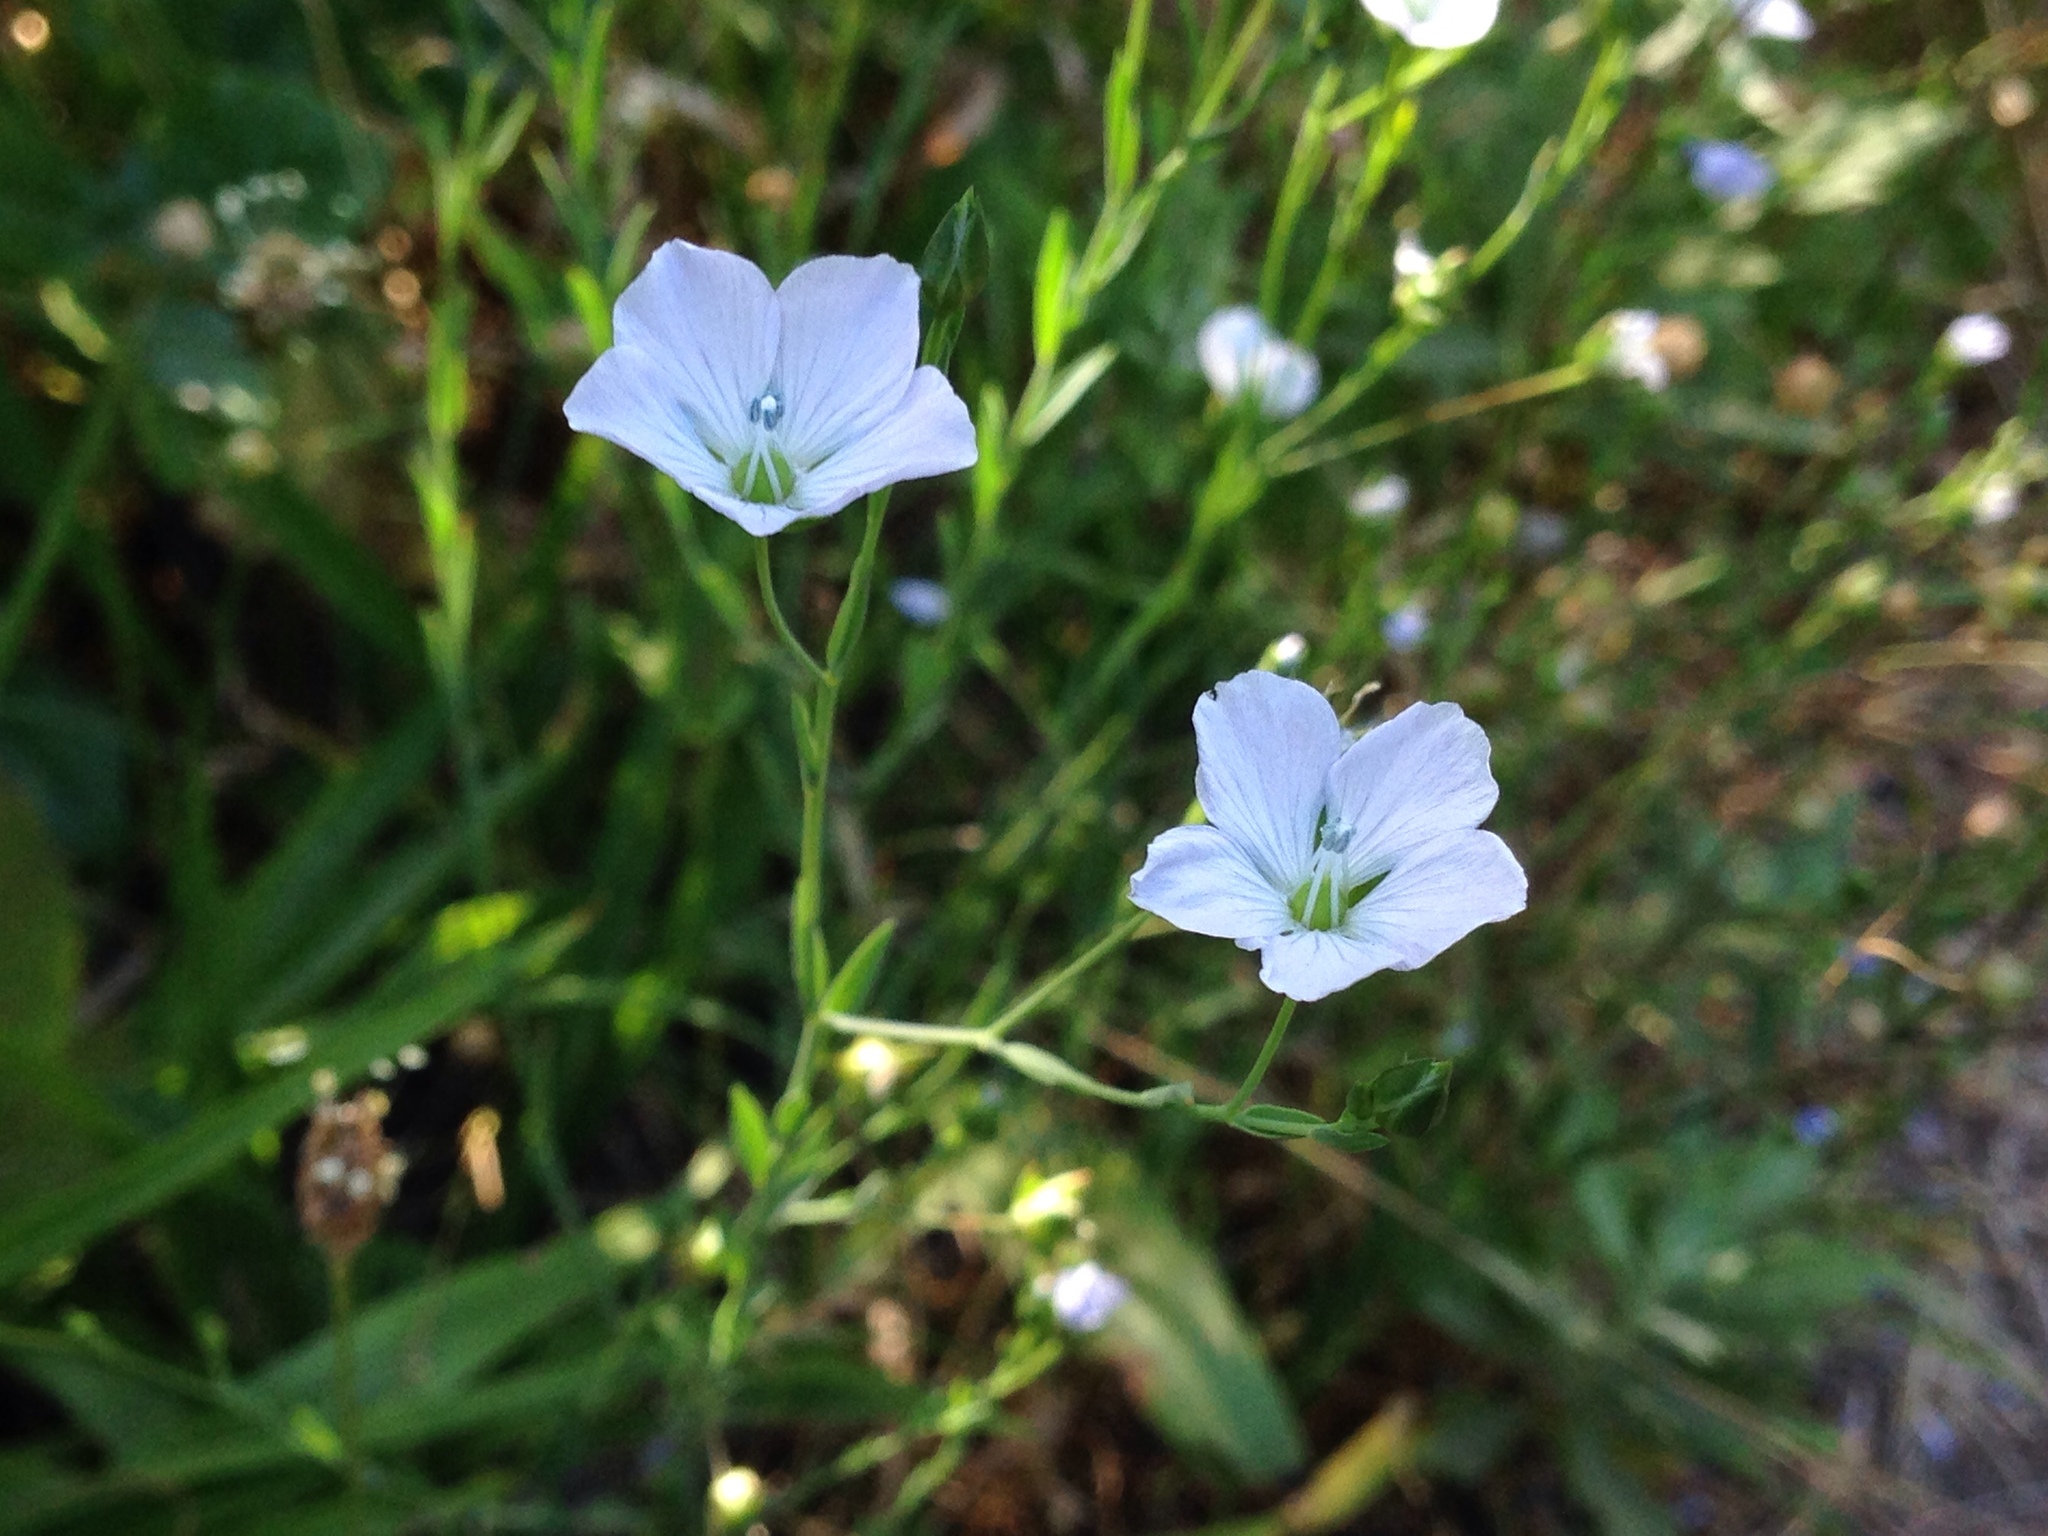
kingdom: Plantae
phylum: Tracheophyta
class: Magnoliopsida
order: Malpighiales
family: Linaceae
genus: Linum
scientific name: Linum bienne
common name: Pale flax
